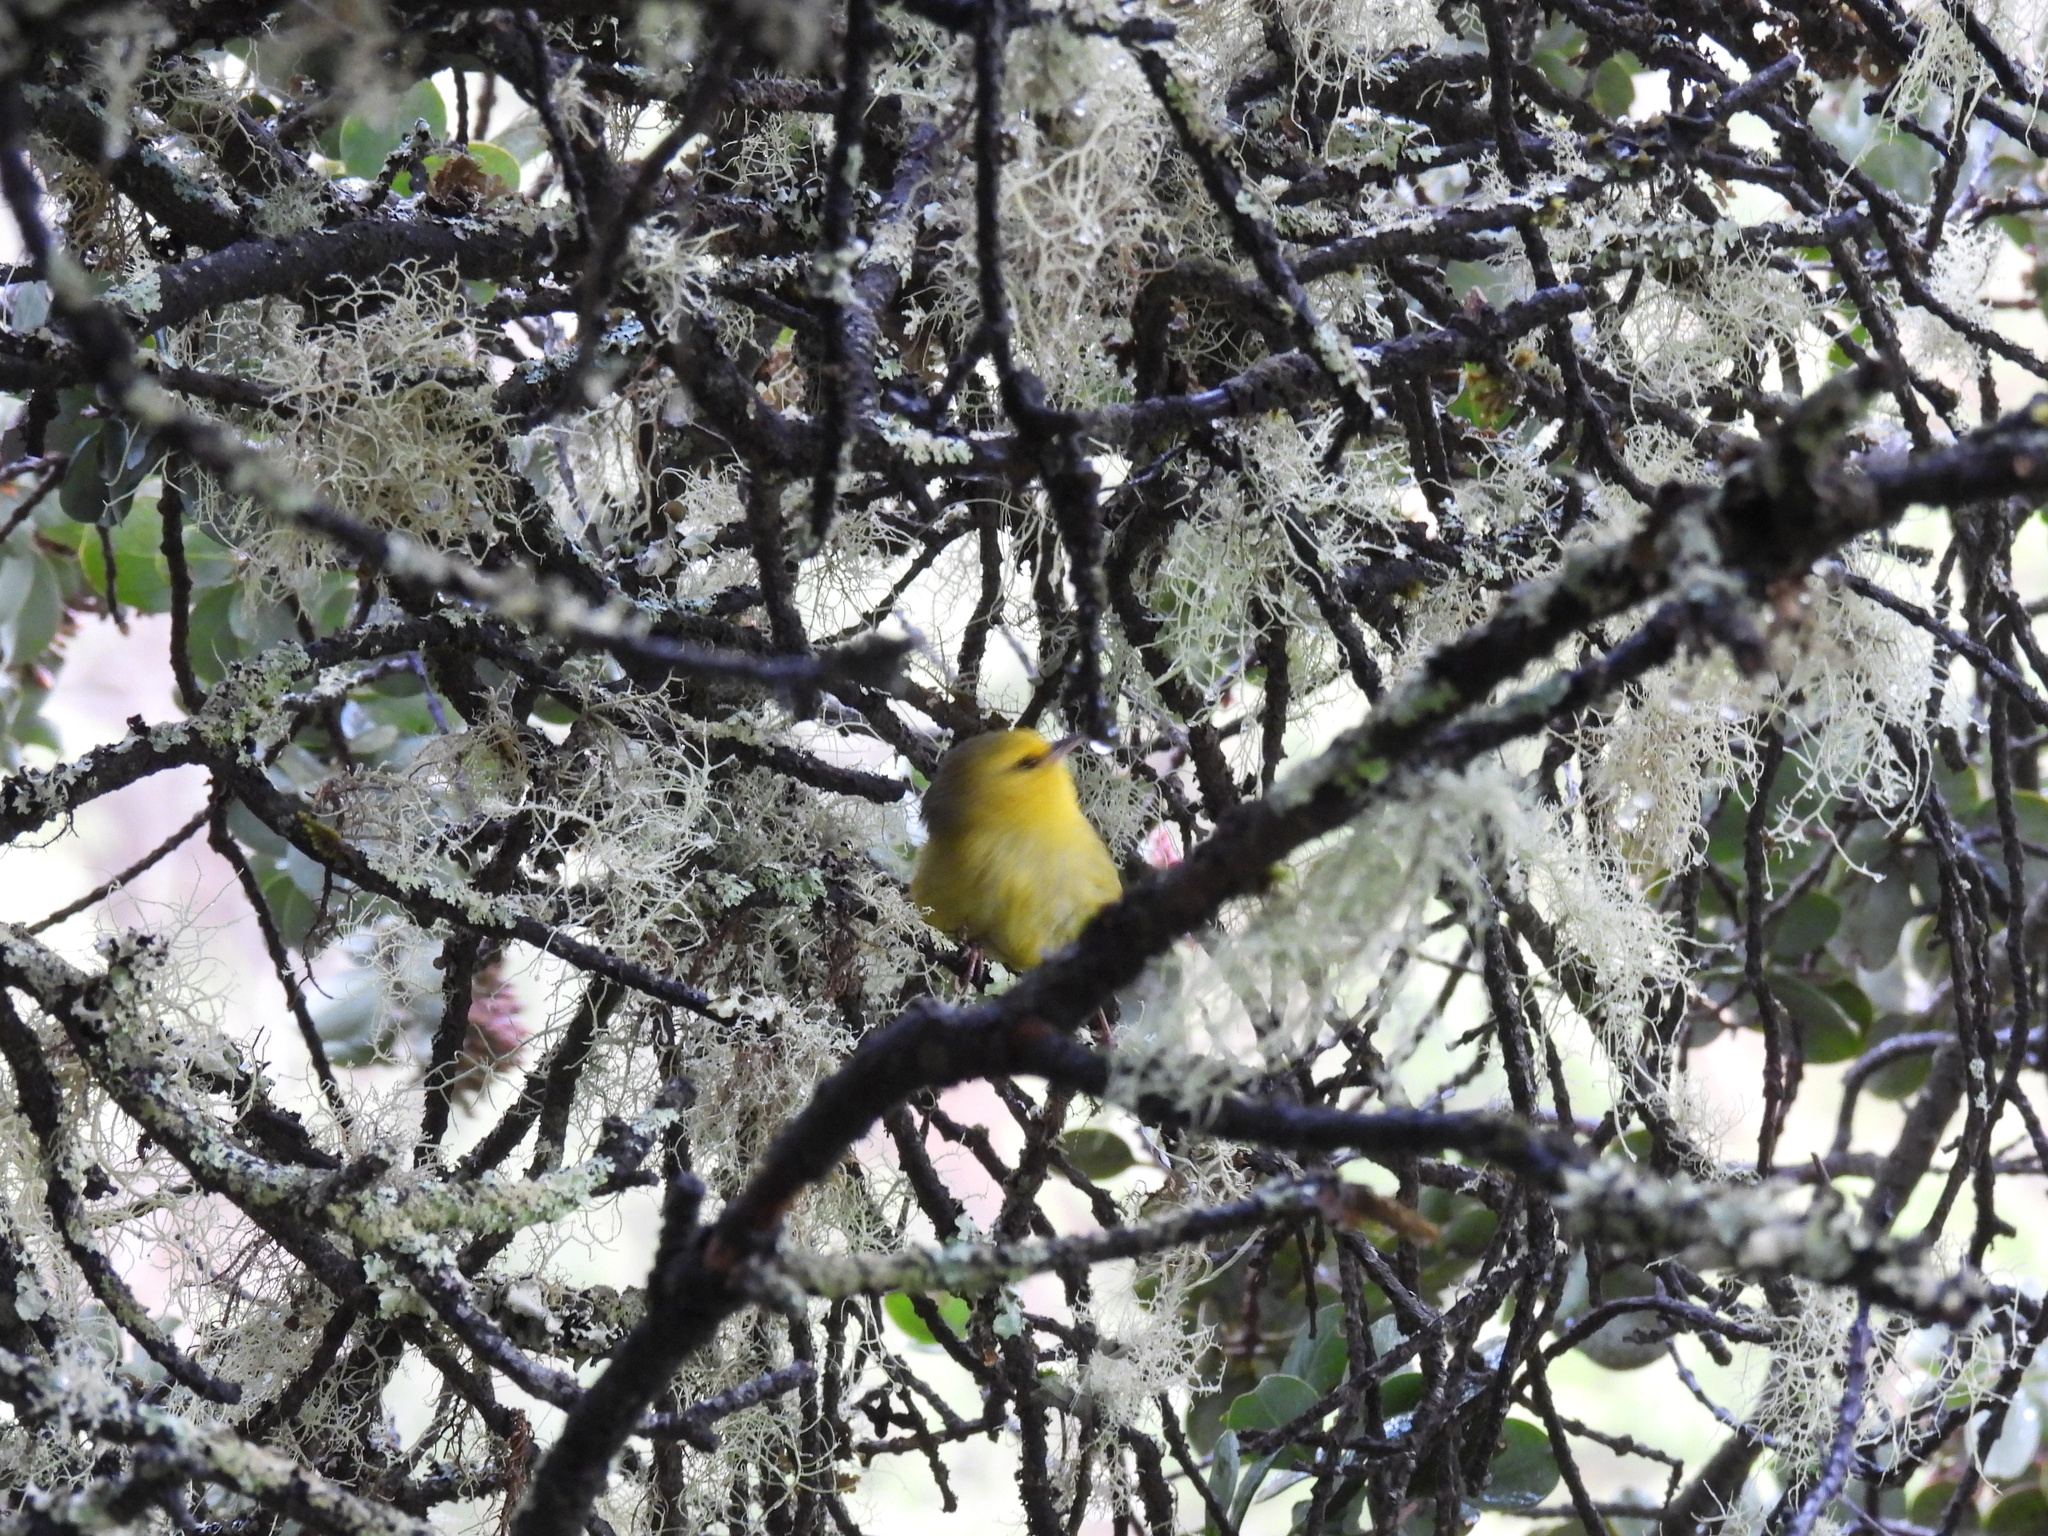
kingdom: Animalia
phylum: Chordata
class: Aves
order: Passeriformes
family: Fringillidae
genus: Paroreomyza
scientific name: Paroreomyza montana
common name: Maui alauahio
